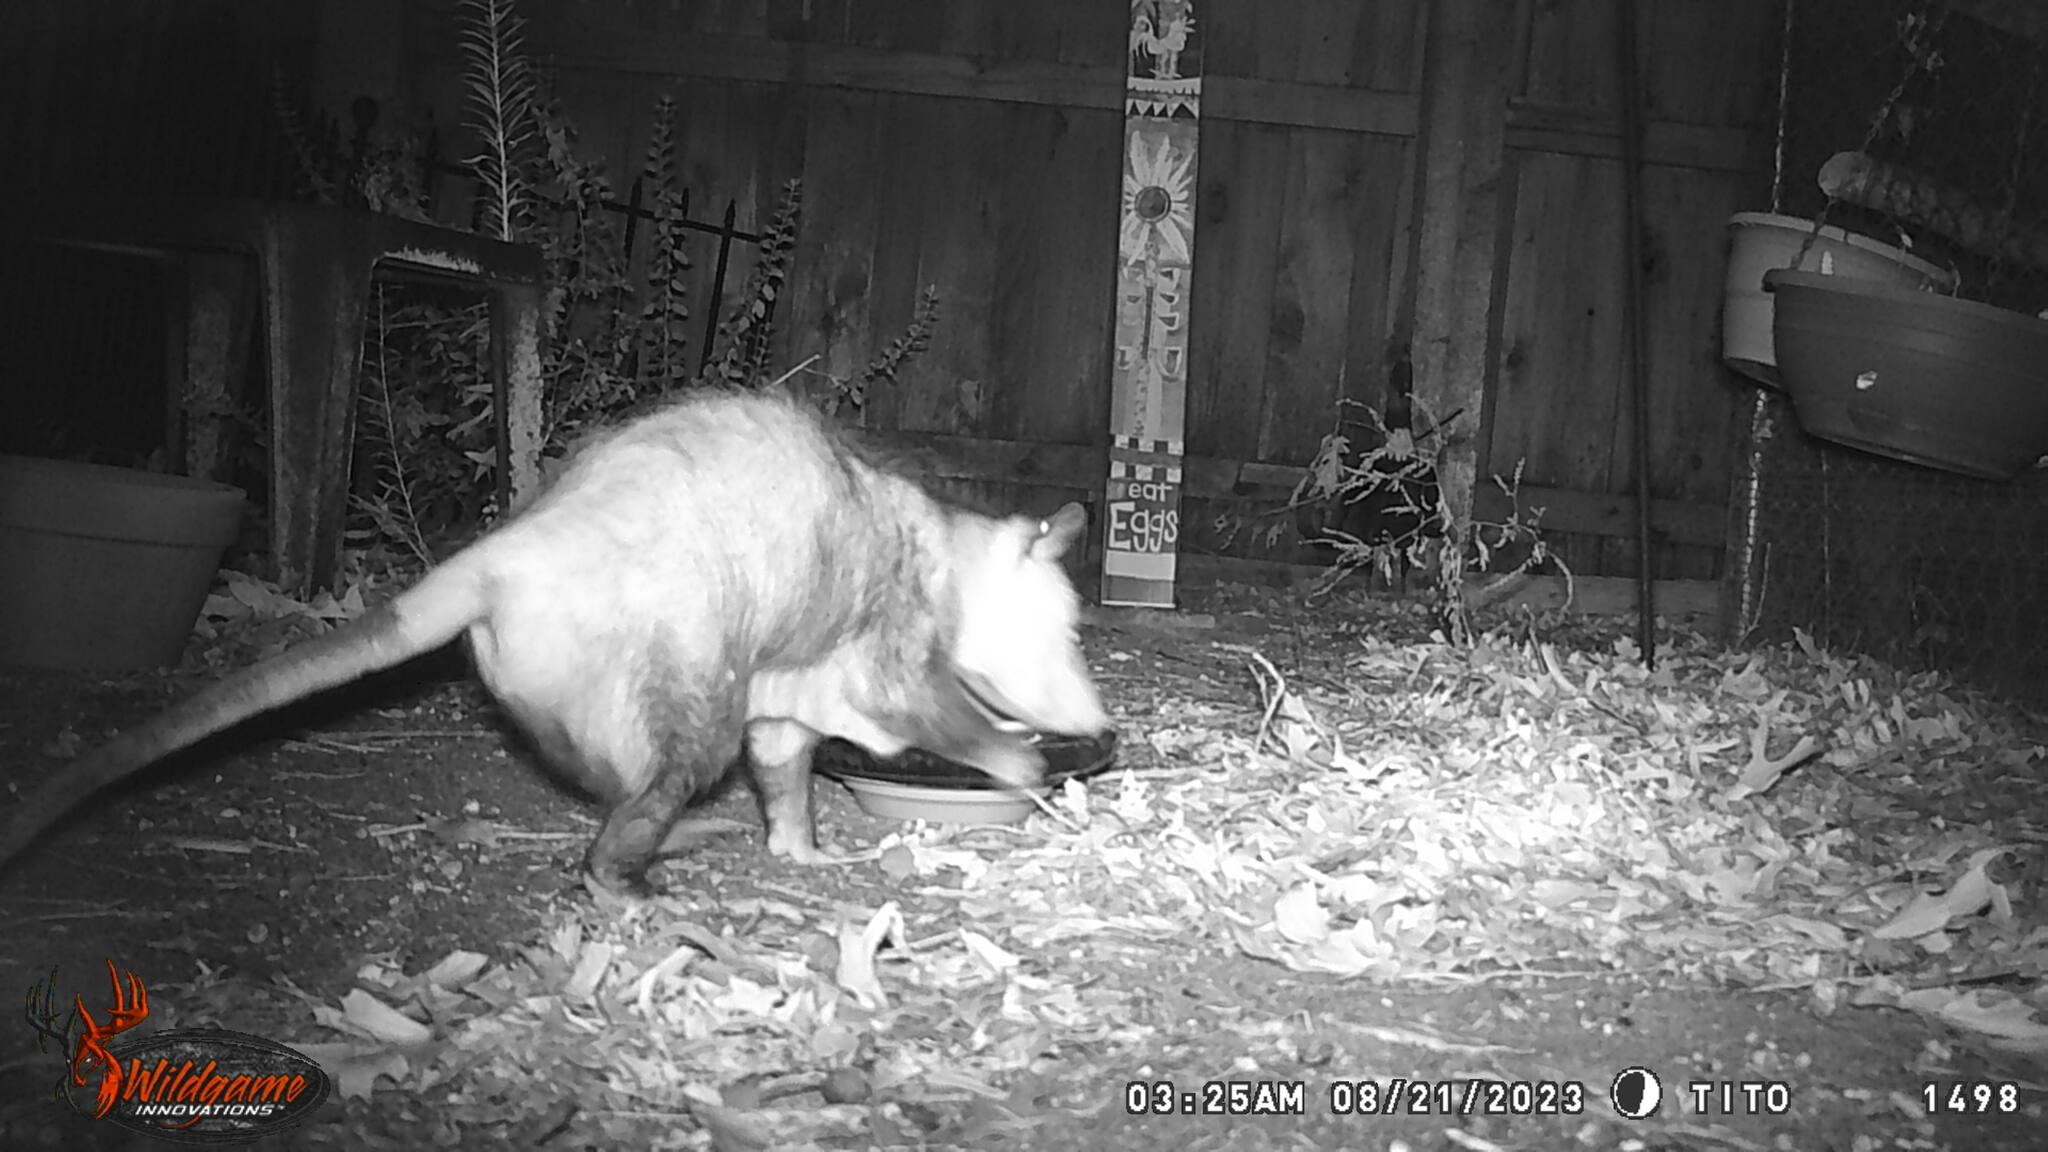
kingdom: Animalia
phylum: Chordata
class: Mammalia
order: Didelphimorphia
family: Didelphidae
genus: Didelphis
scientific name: Didelphis virginiana
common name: Virginia opossum
